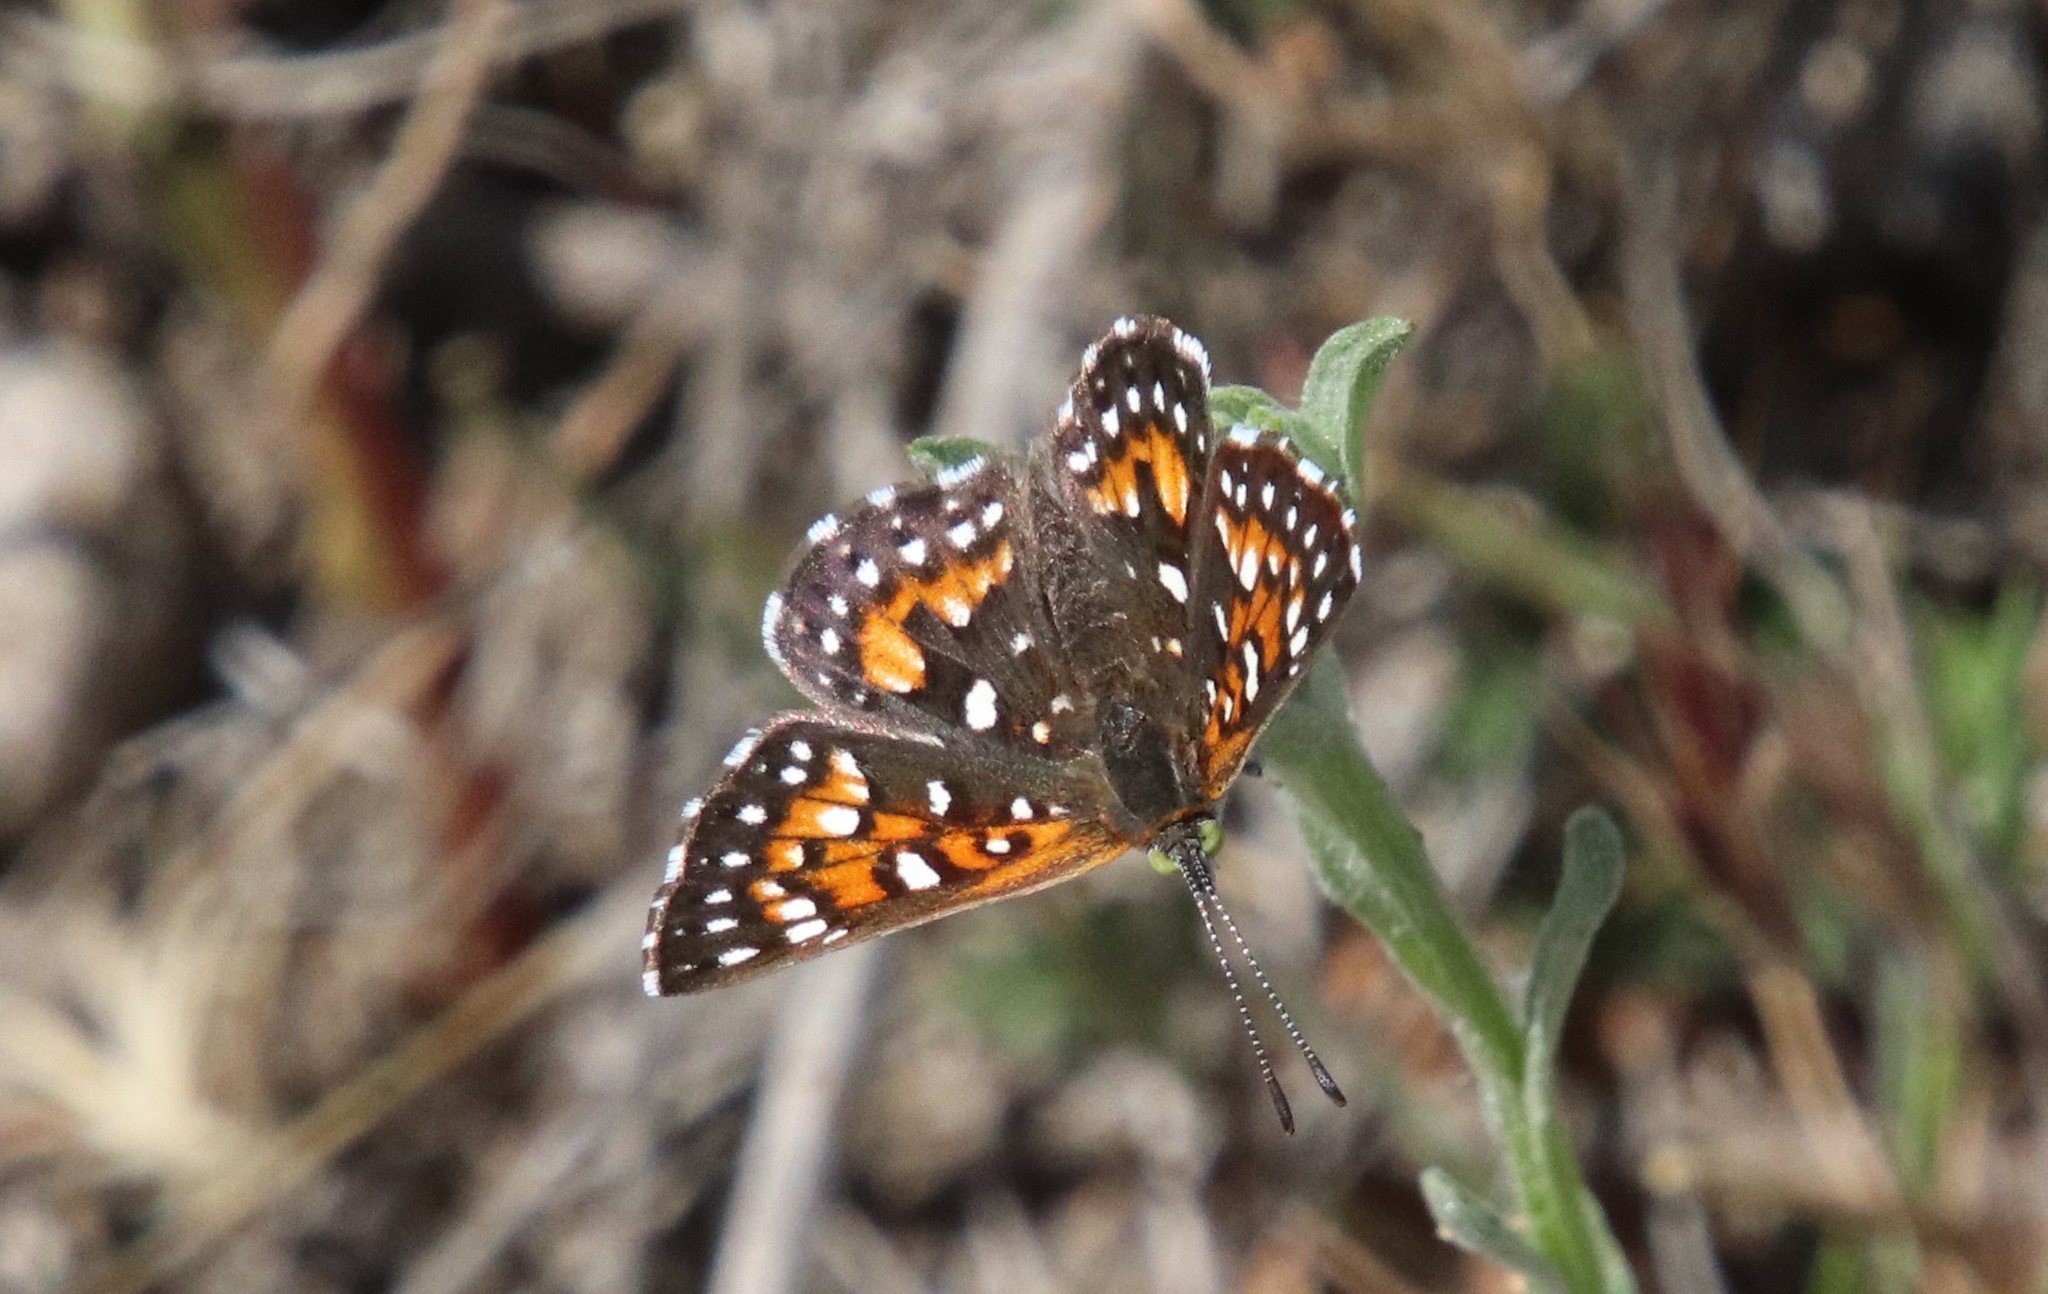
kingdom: Animalia
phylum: Arthropoda
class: Insecta
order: Lepidoptera
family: Riodinidae
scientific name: Riodinidae
